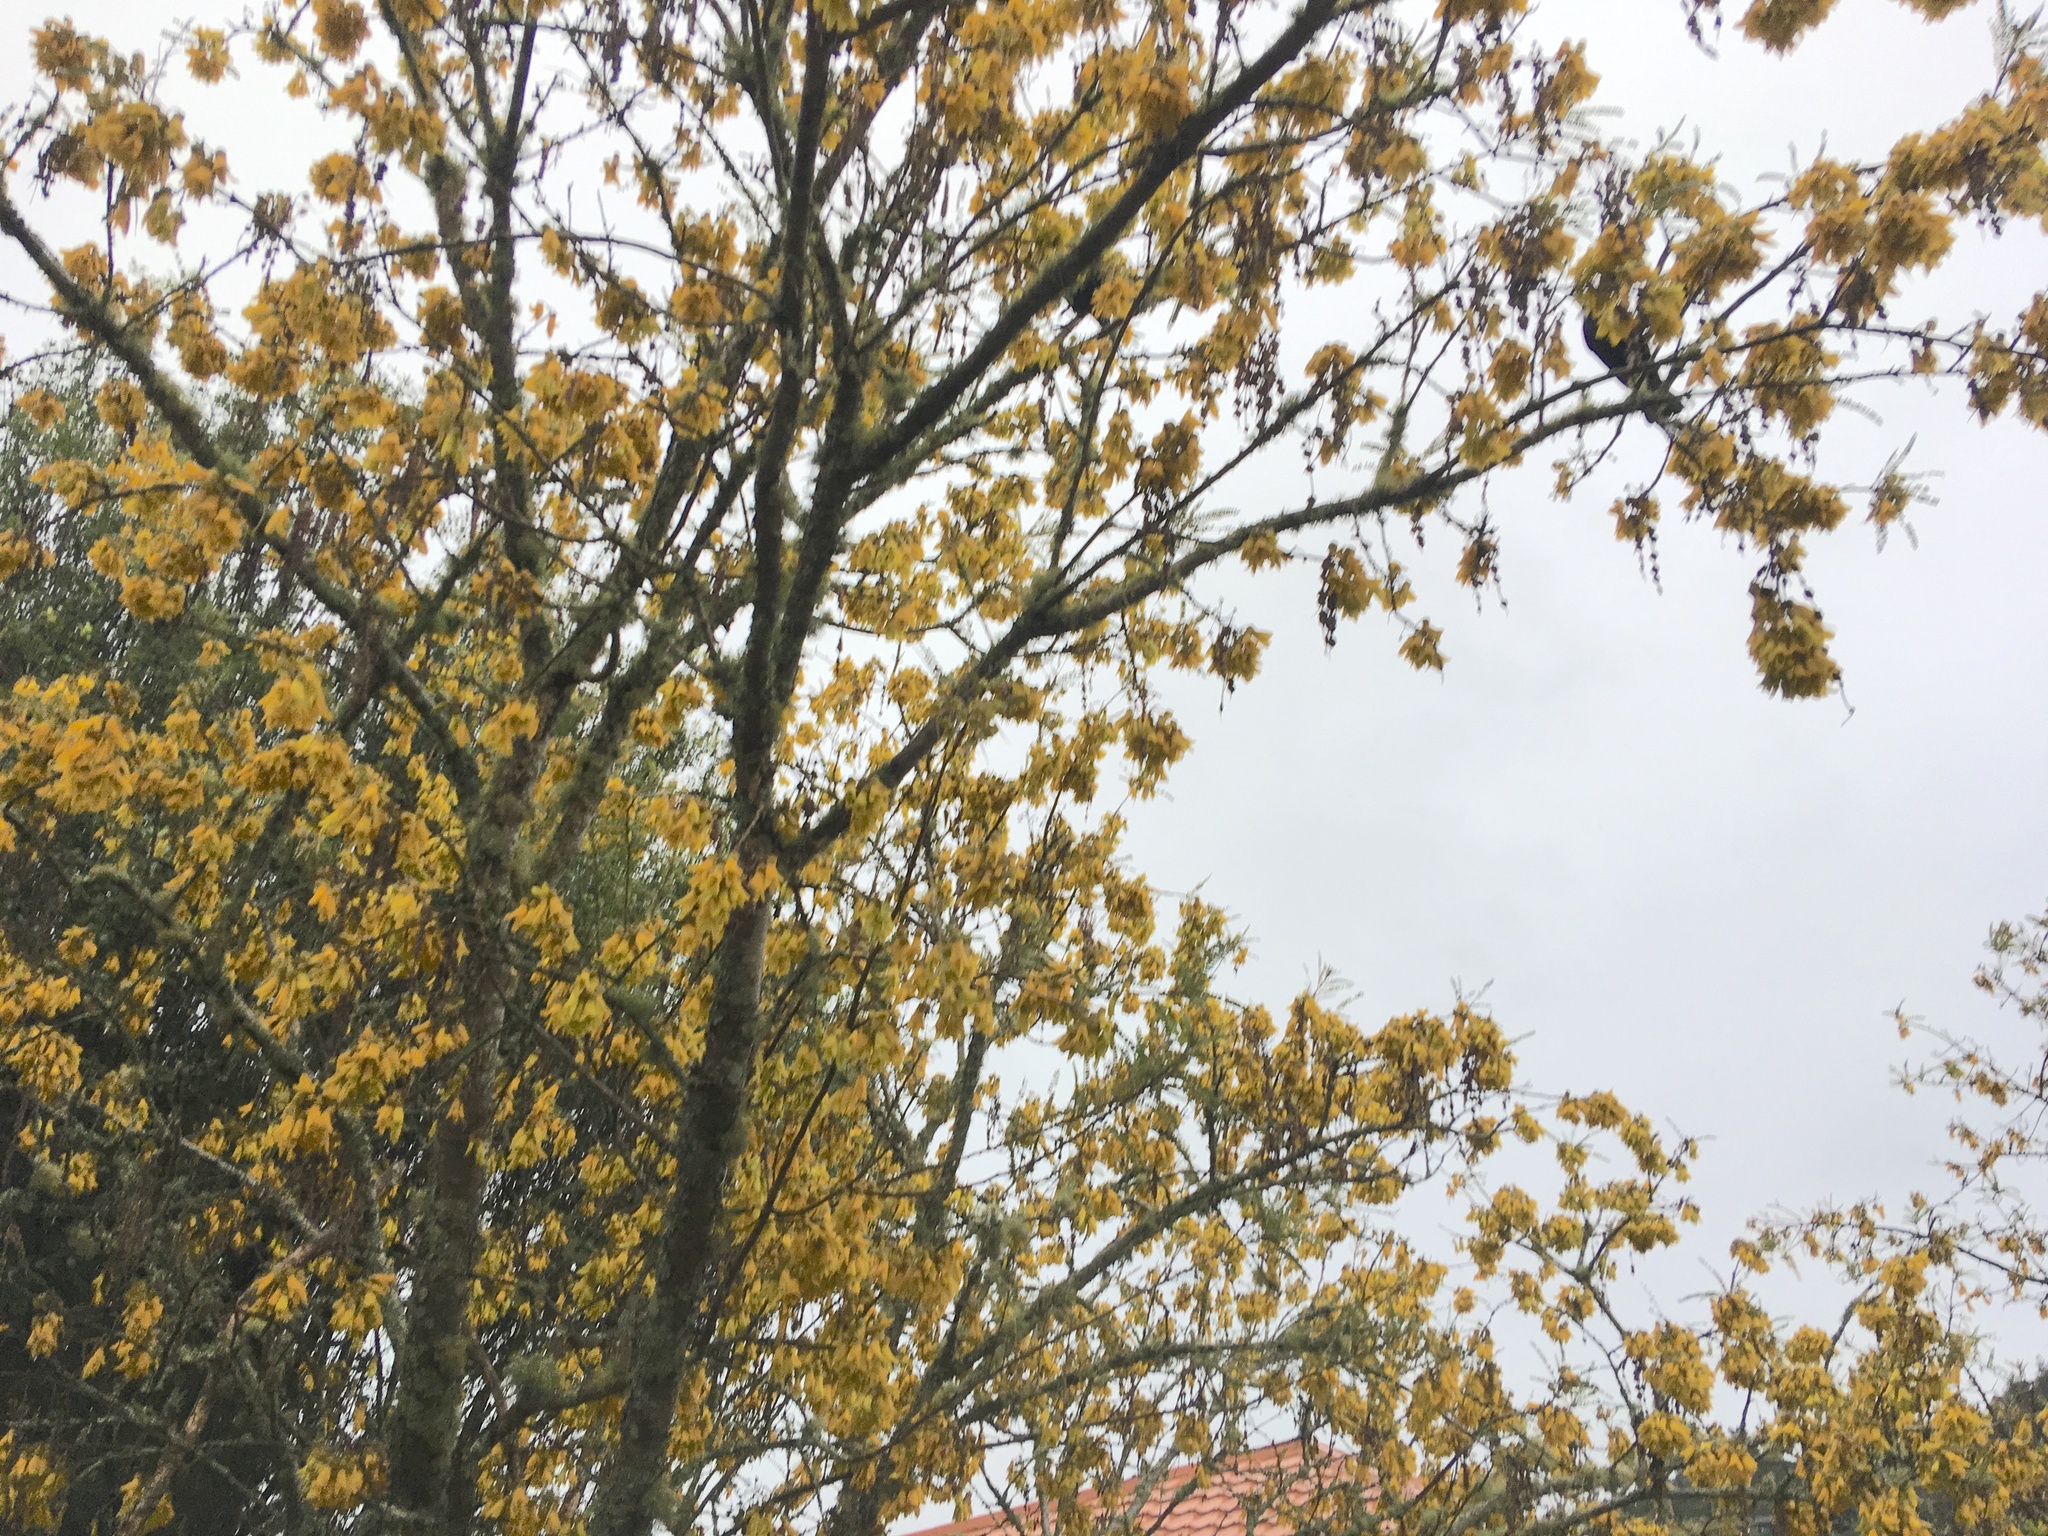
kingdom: Animalia
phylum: Chordata
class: Aves
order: Passeriformes
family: Meliphagidae
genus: Prosthemadera
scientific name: Prosthemadera novaeseelandiae
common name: Tui
